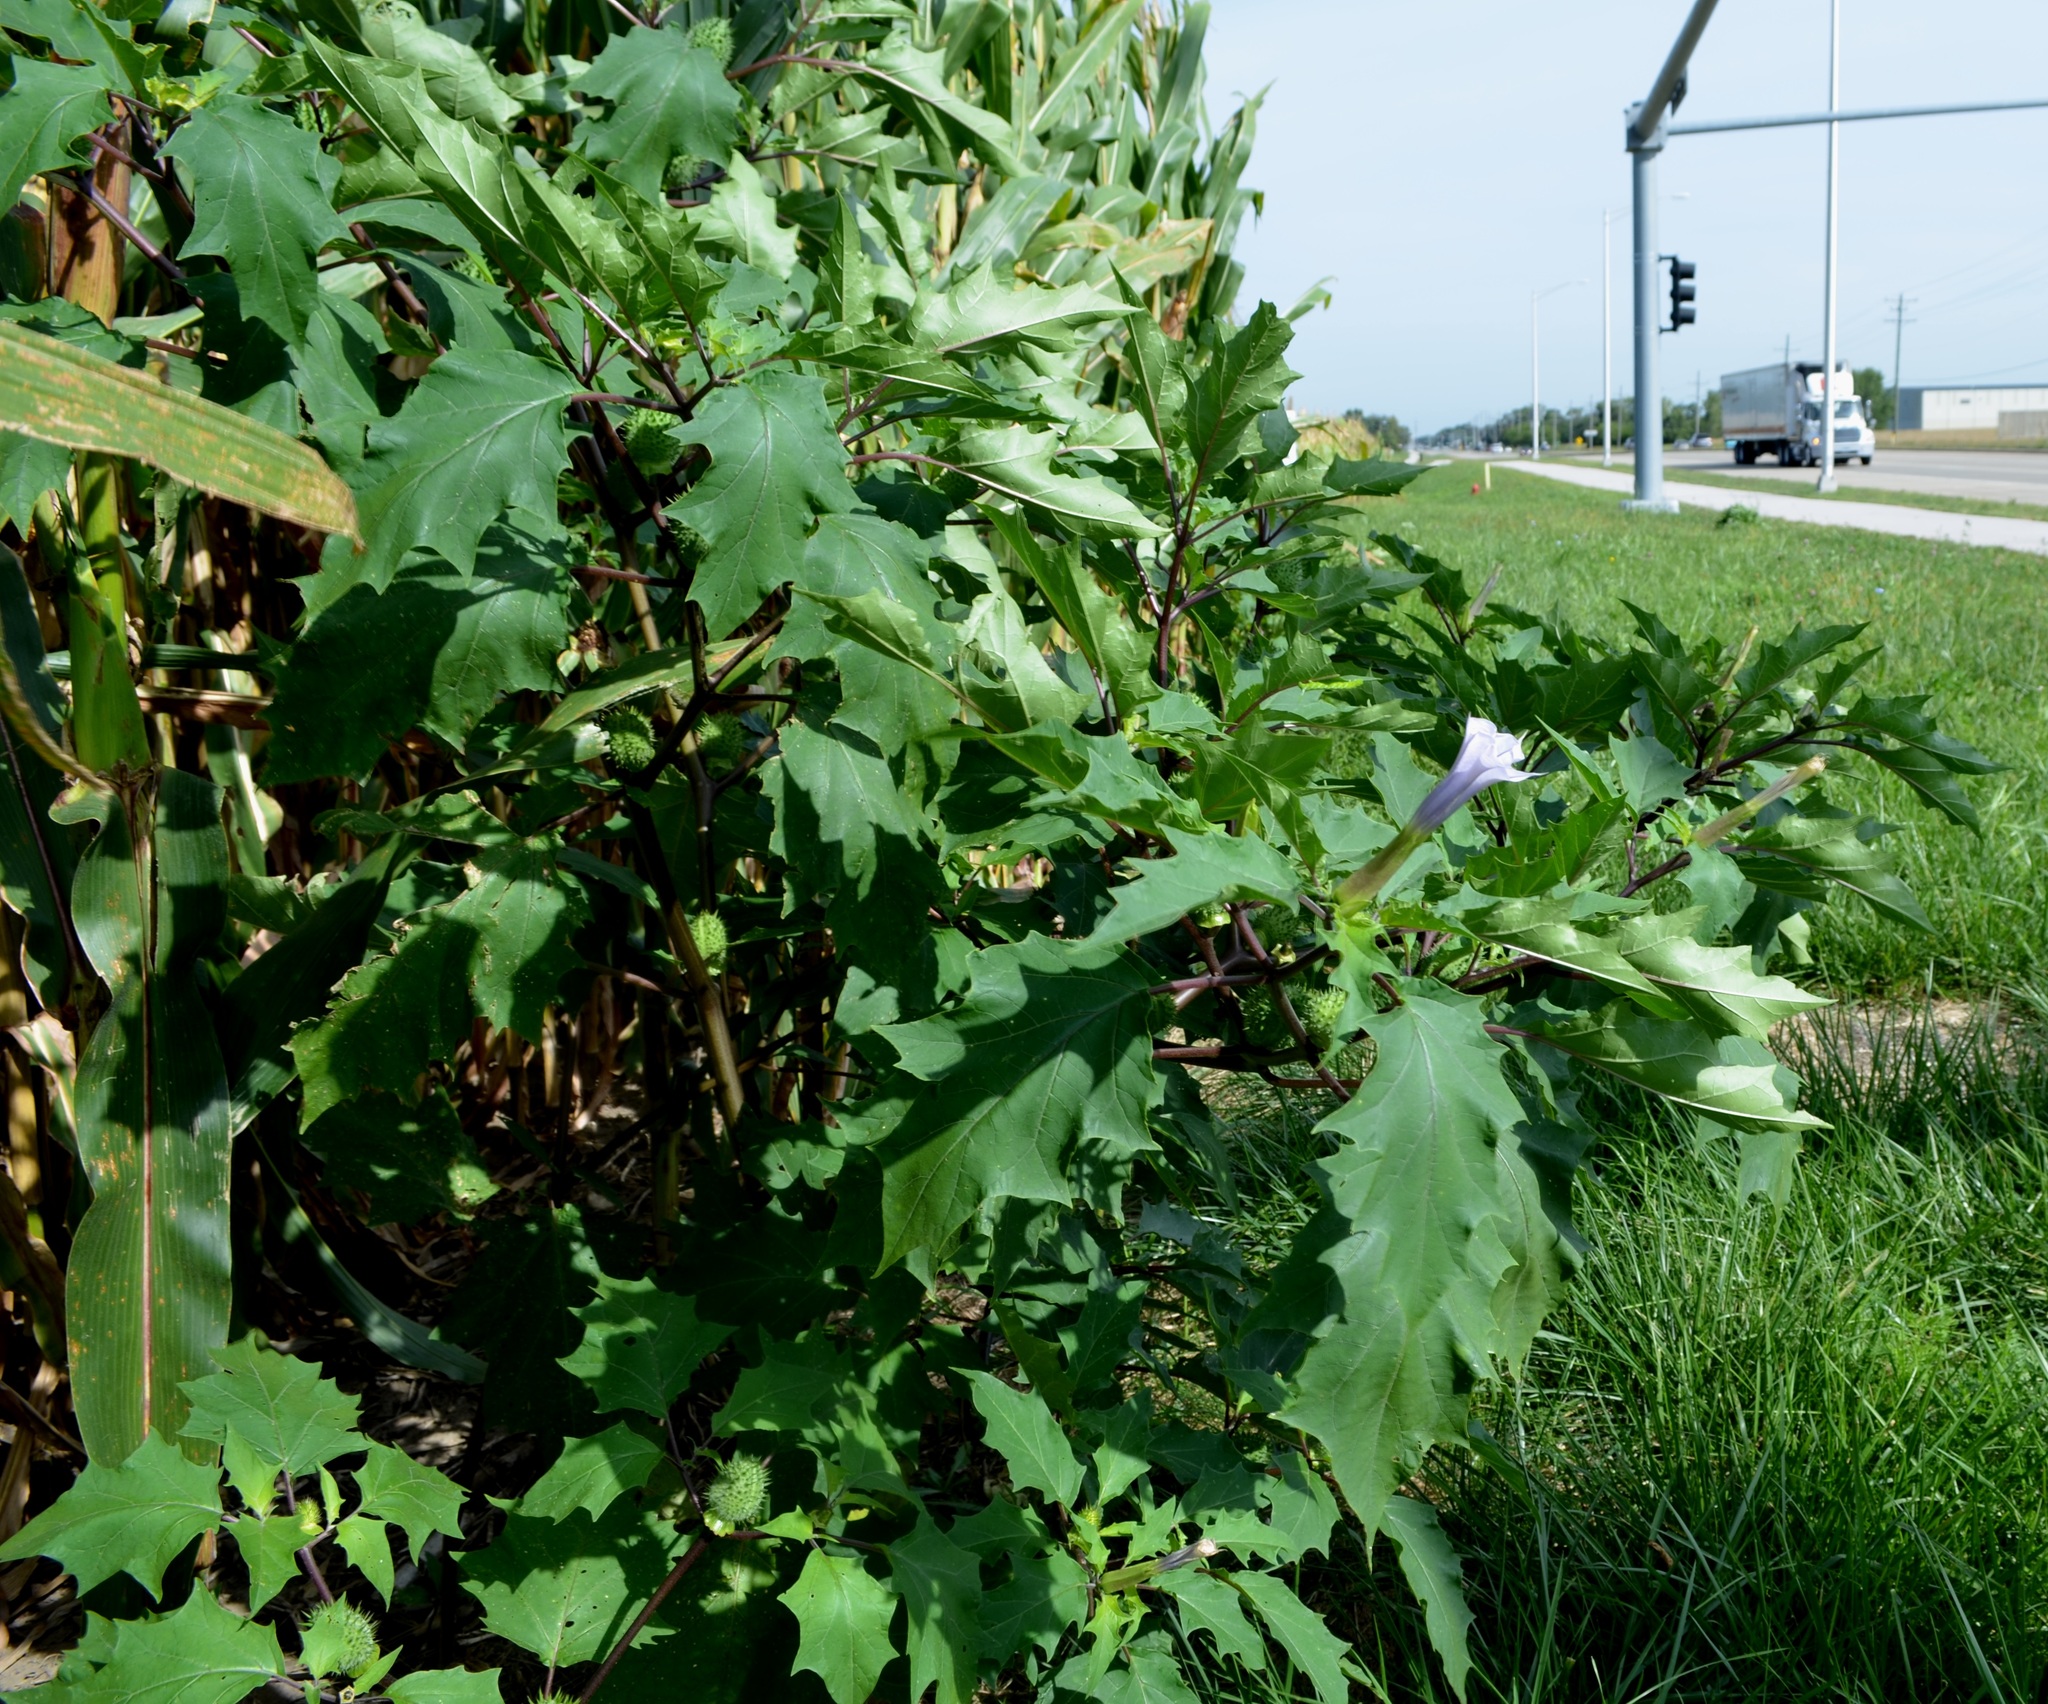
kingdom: Plantae
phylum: Tracheophyta
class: Magnoliopsida
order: Solanales
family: Solanaceae
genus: Datura
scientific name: Datura stramonium
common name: Thorn-apple
